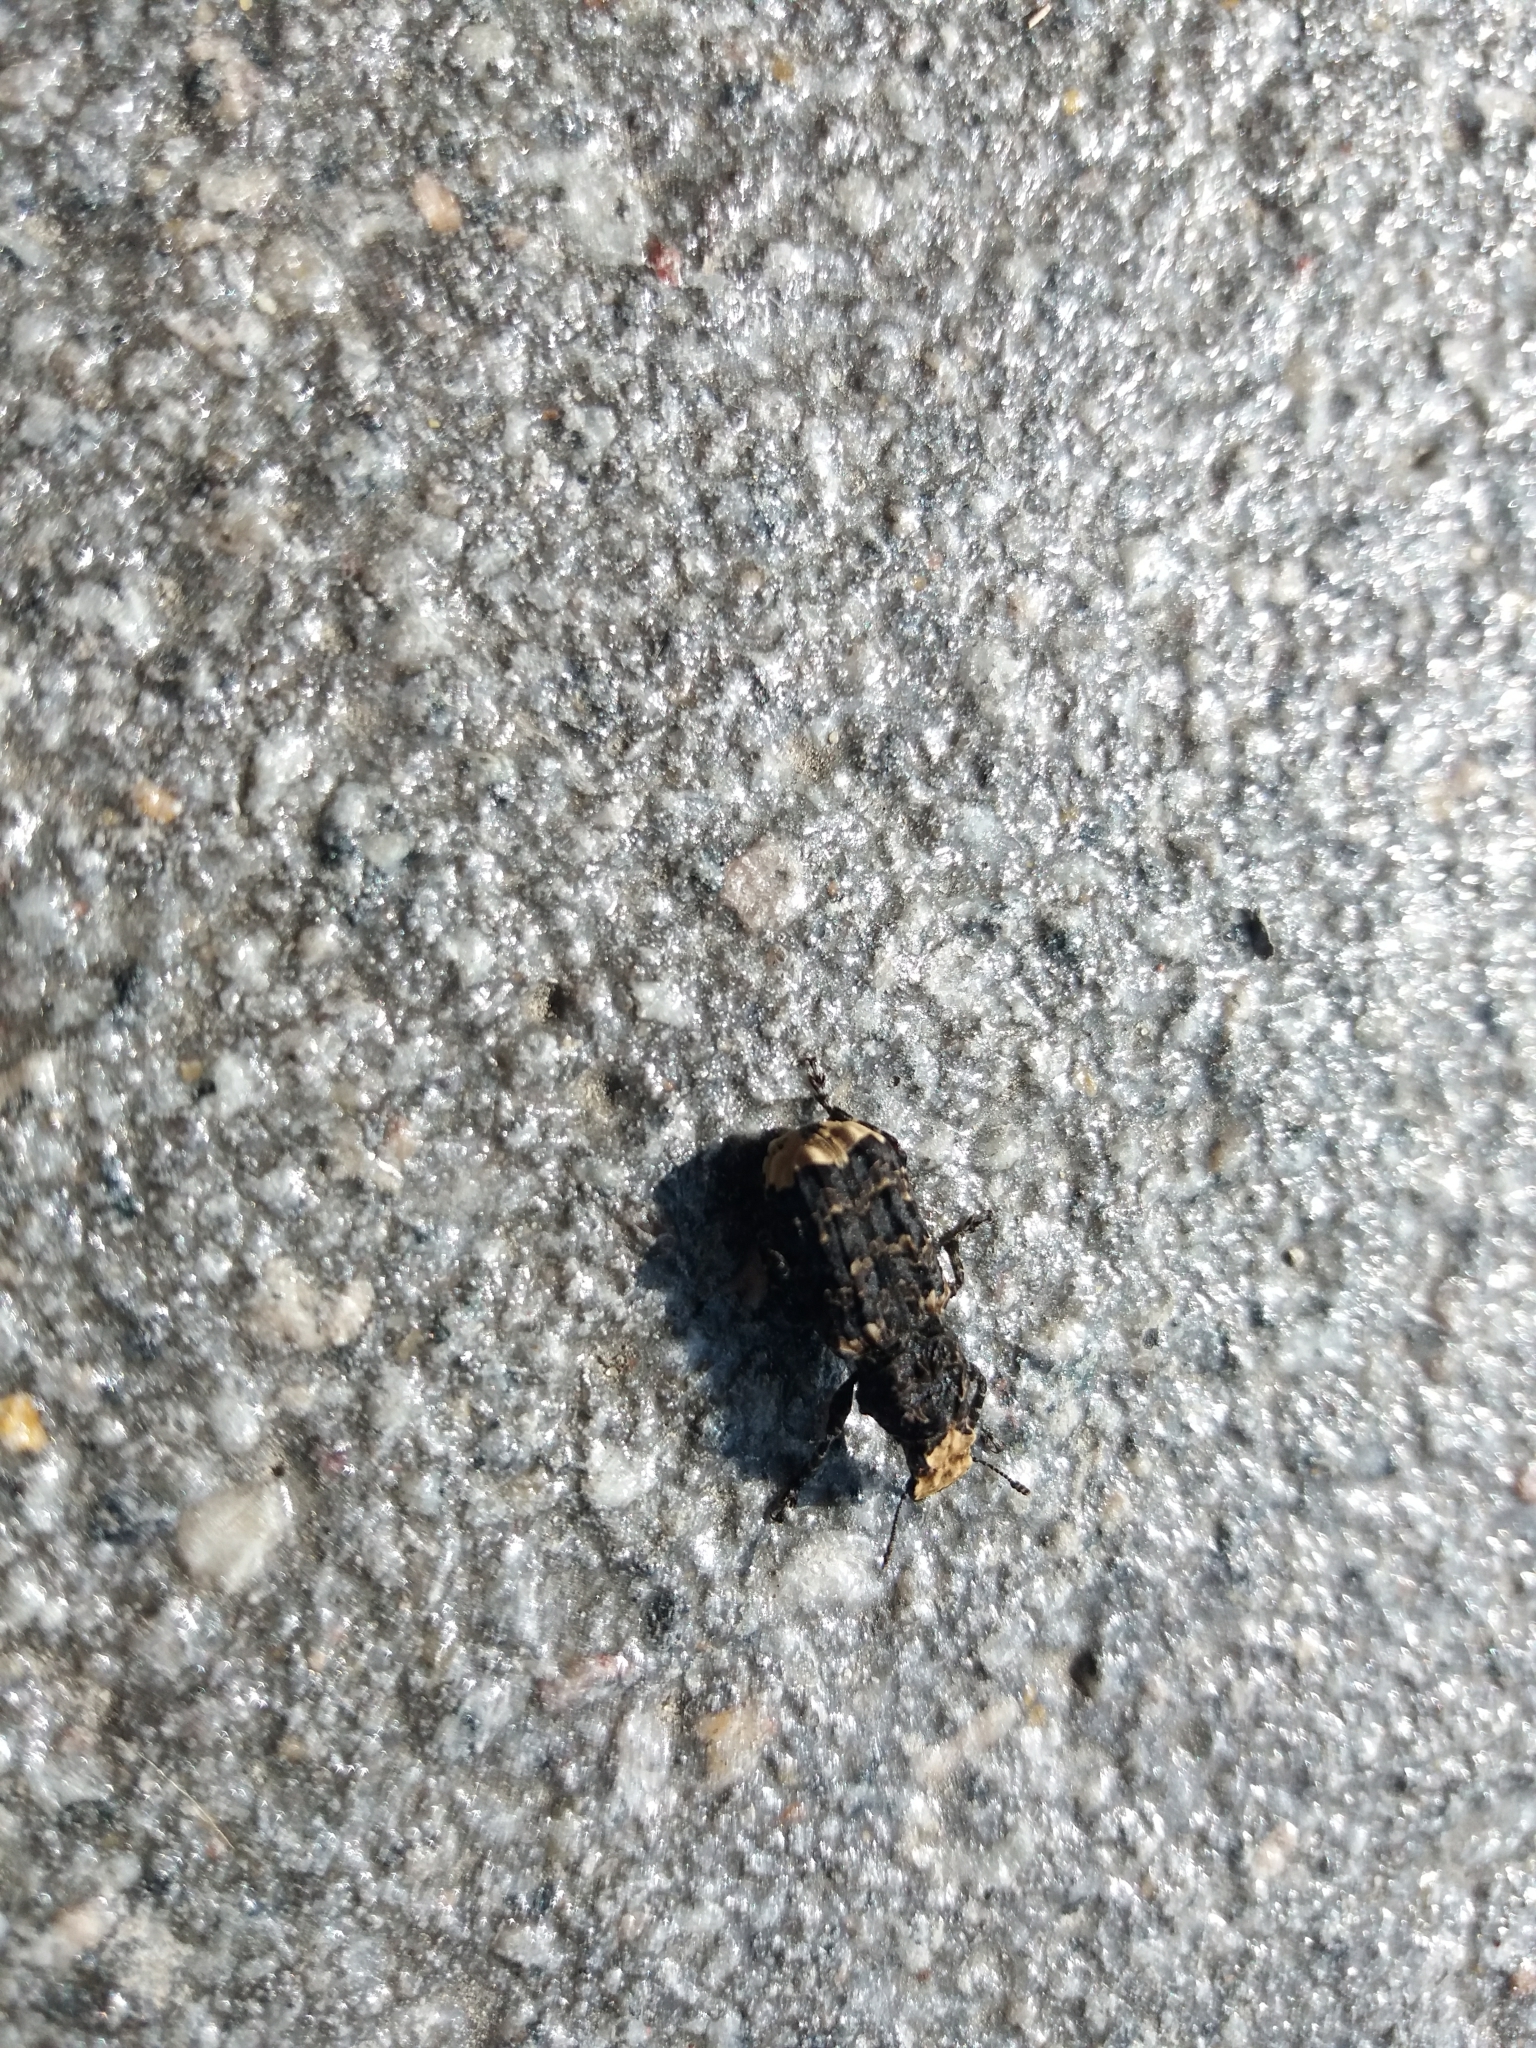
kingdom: Animalia
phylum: Arthropoda
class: Insecta
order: Coleoptera
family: Anthribidae
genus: Platyrhinus
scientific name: Platyrhinus resinosus
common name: Cramp-ball fungus weevil
